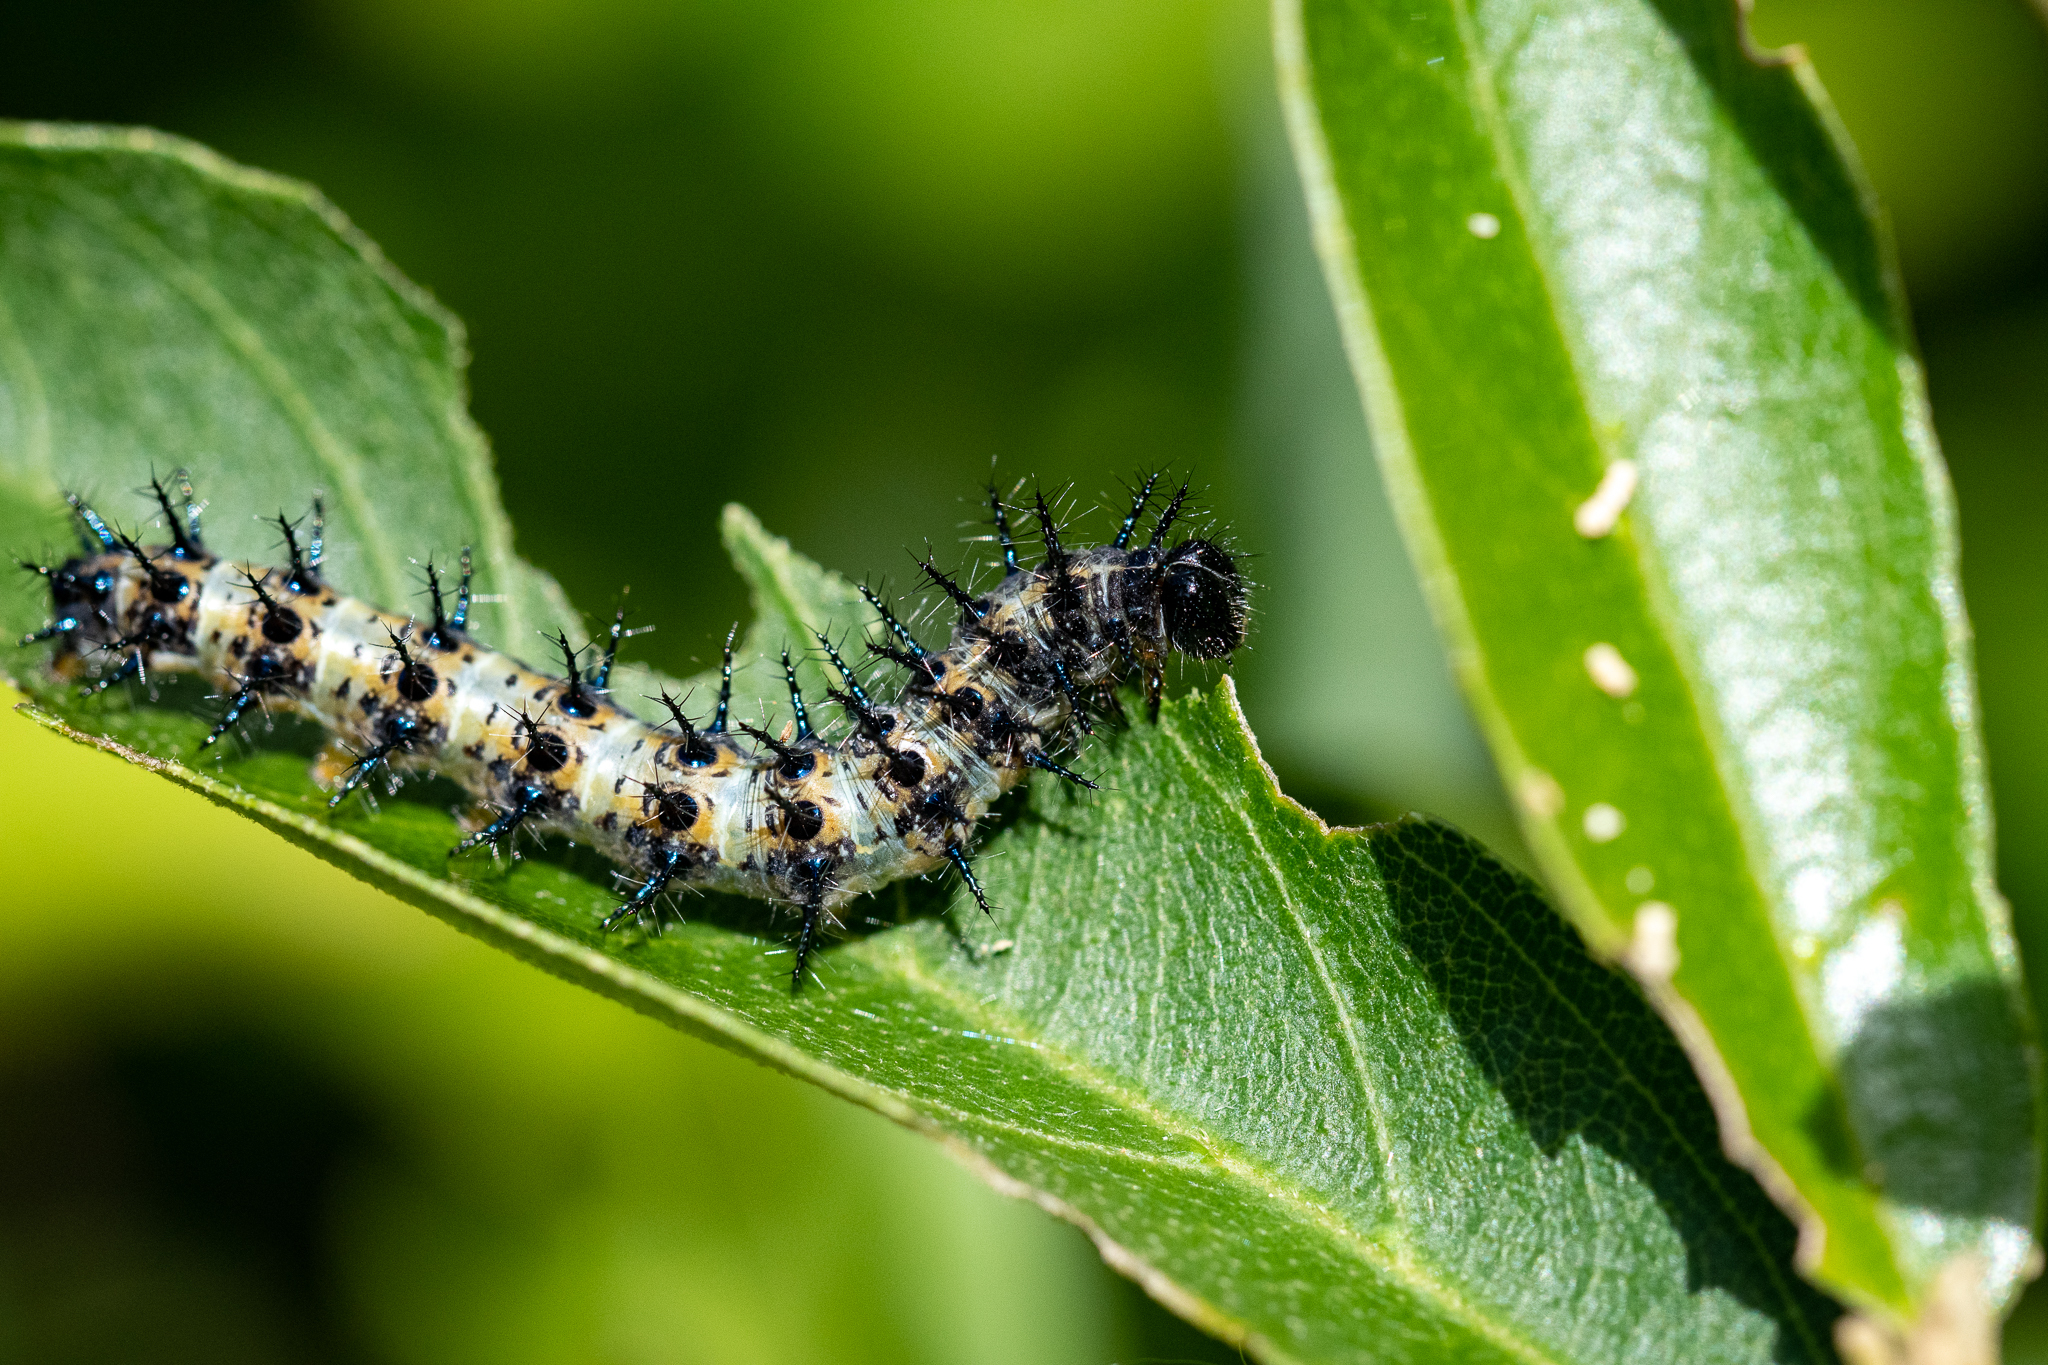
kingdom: Animalia
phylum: Arthropoda
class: Insecta
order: Lepidoptera
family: Nymphalidae
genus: Acraea
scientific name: Acraea horta
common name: Garden acraea
